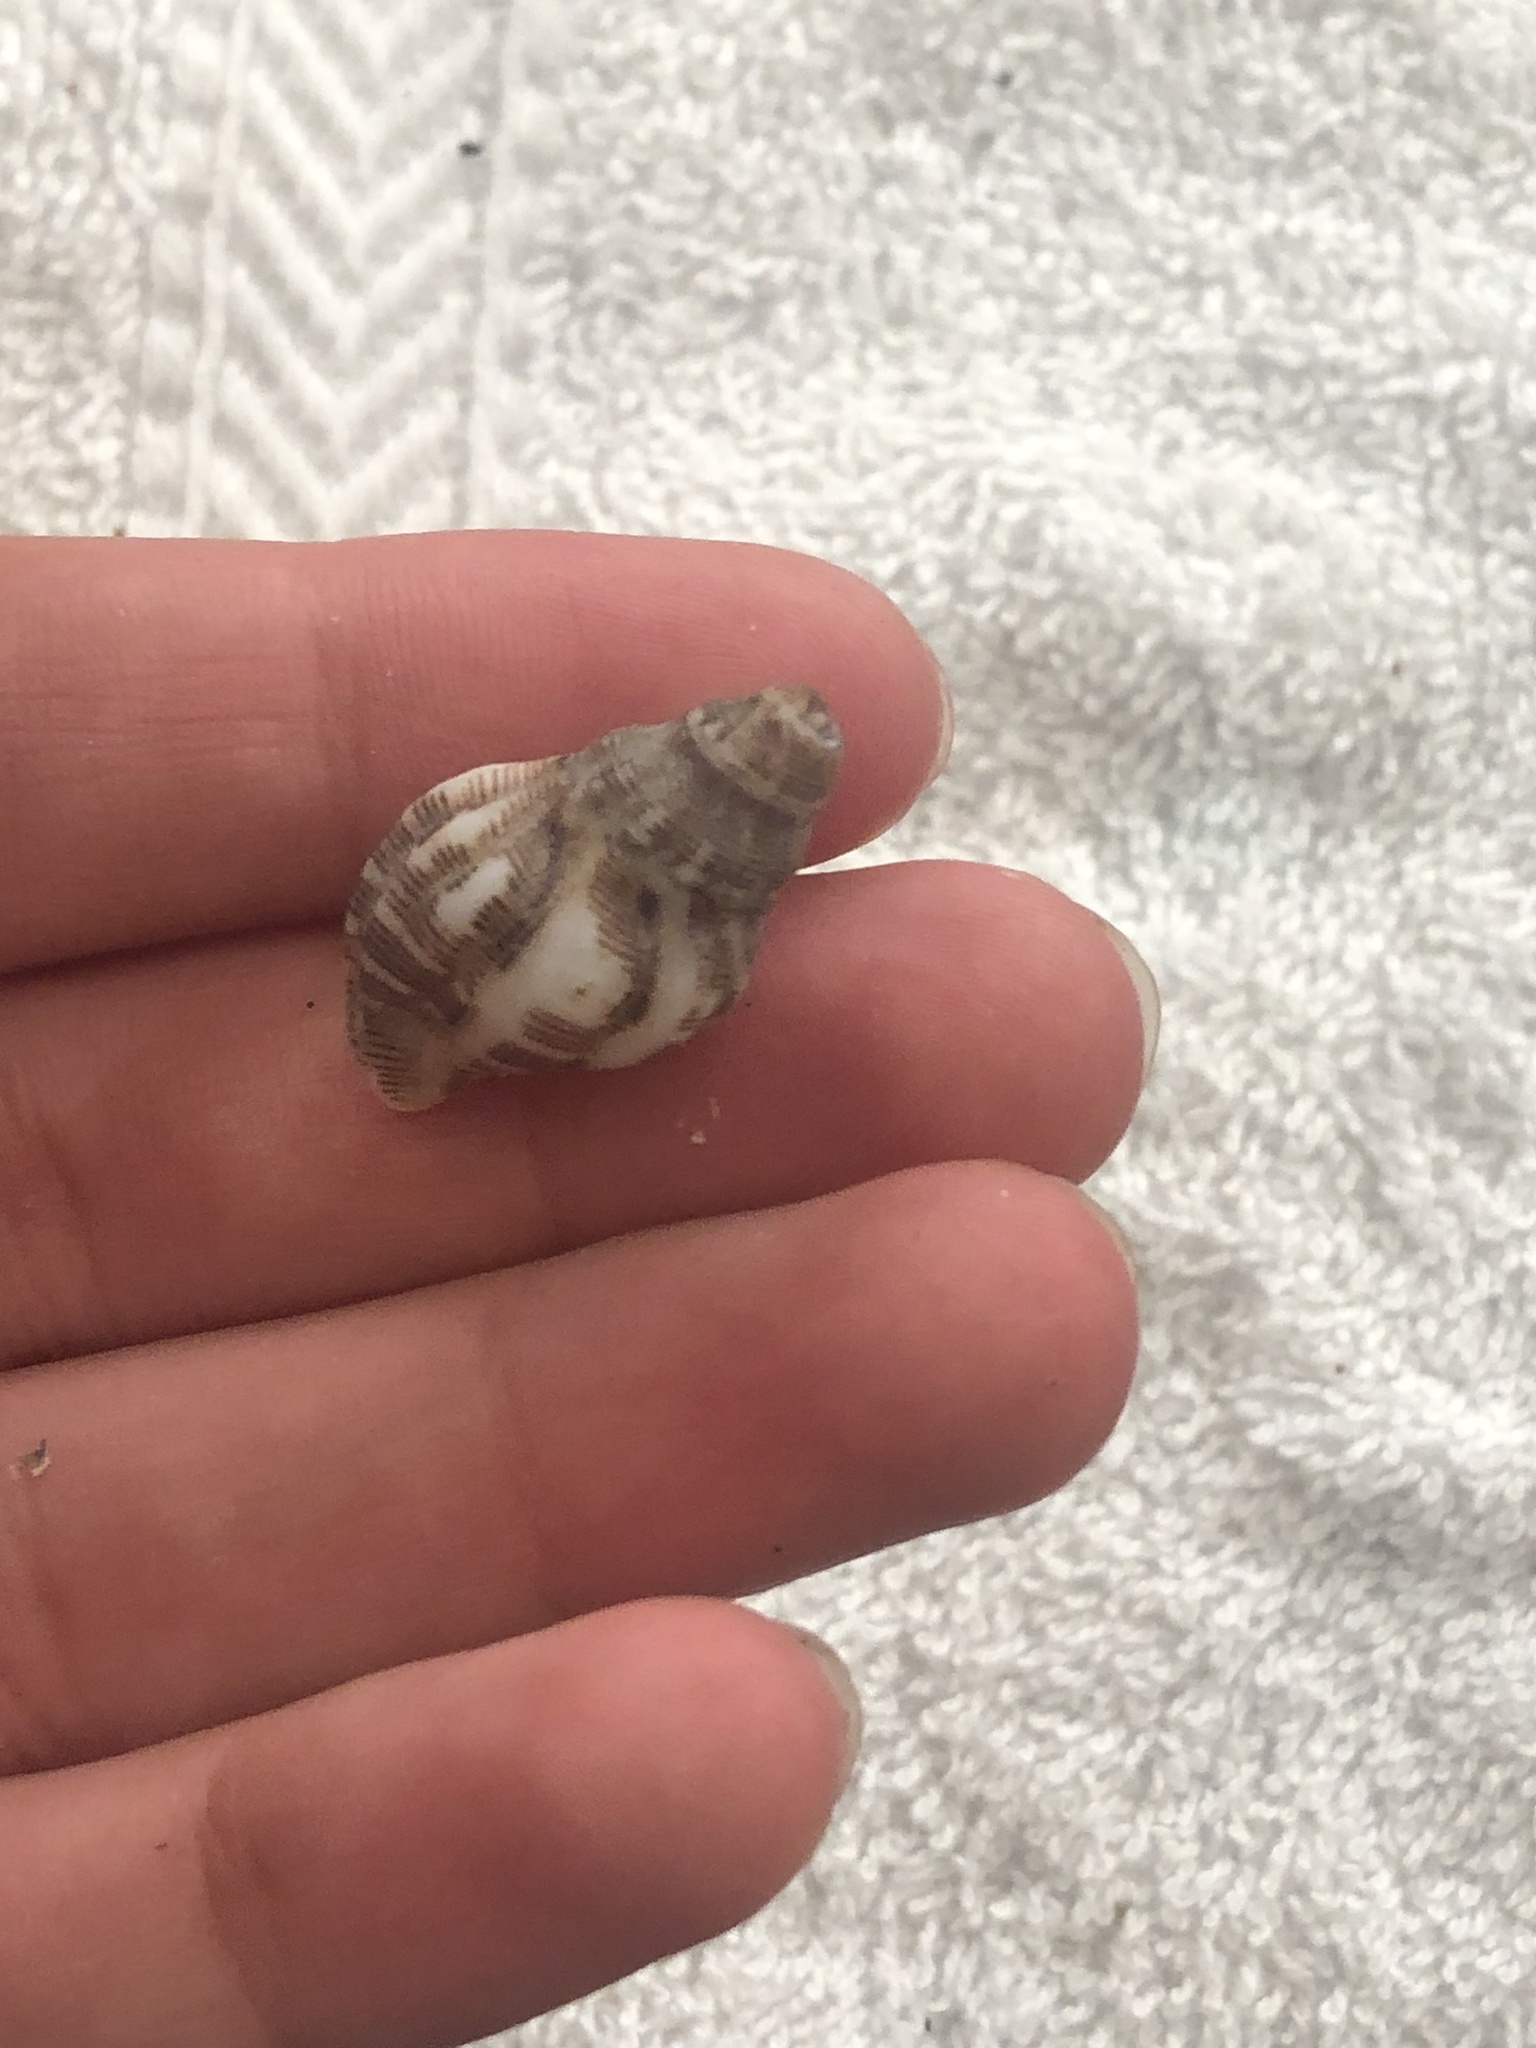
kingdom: Animalia
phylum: Mollusca
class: Gastropoda
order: Neogastropoda
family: Muricidae
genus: Roperia
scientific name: Roperia poulsoni
